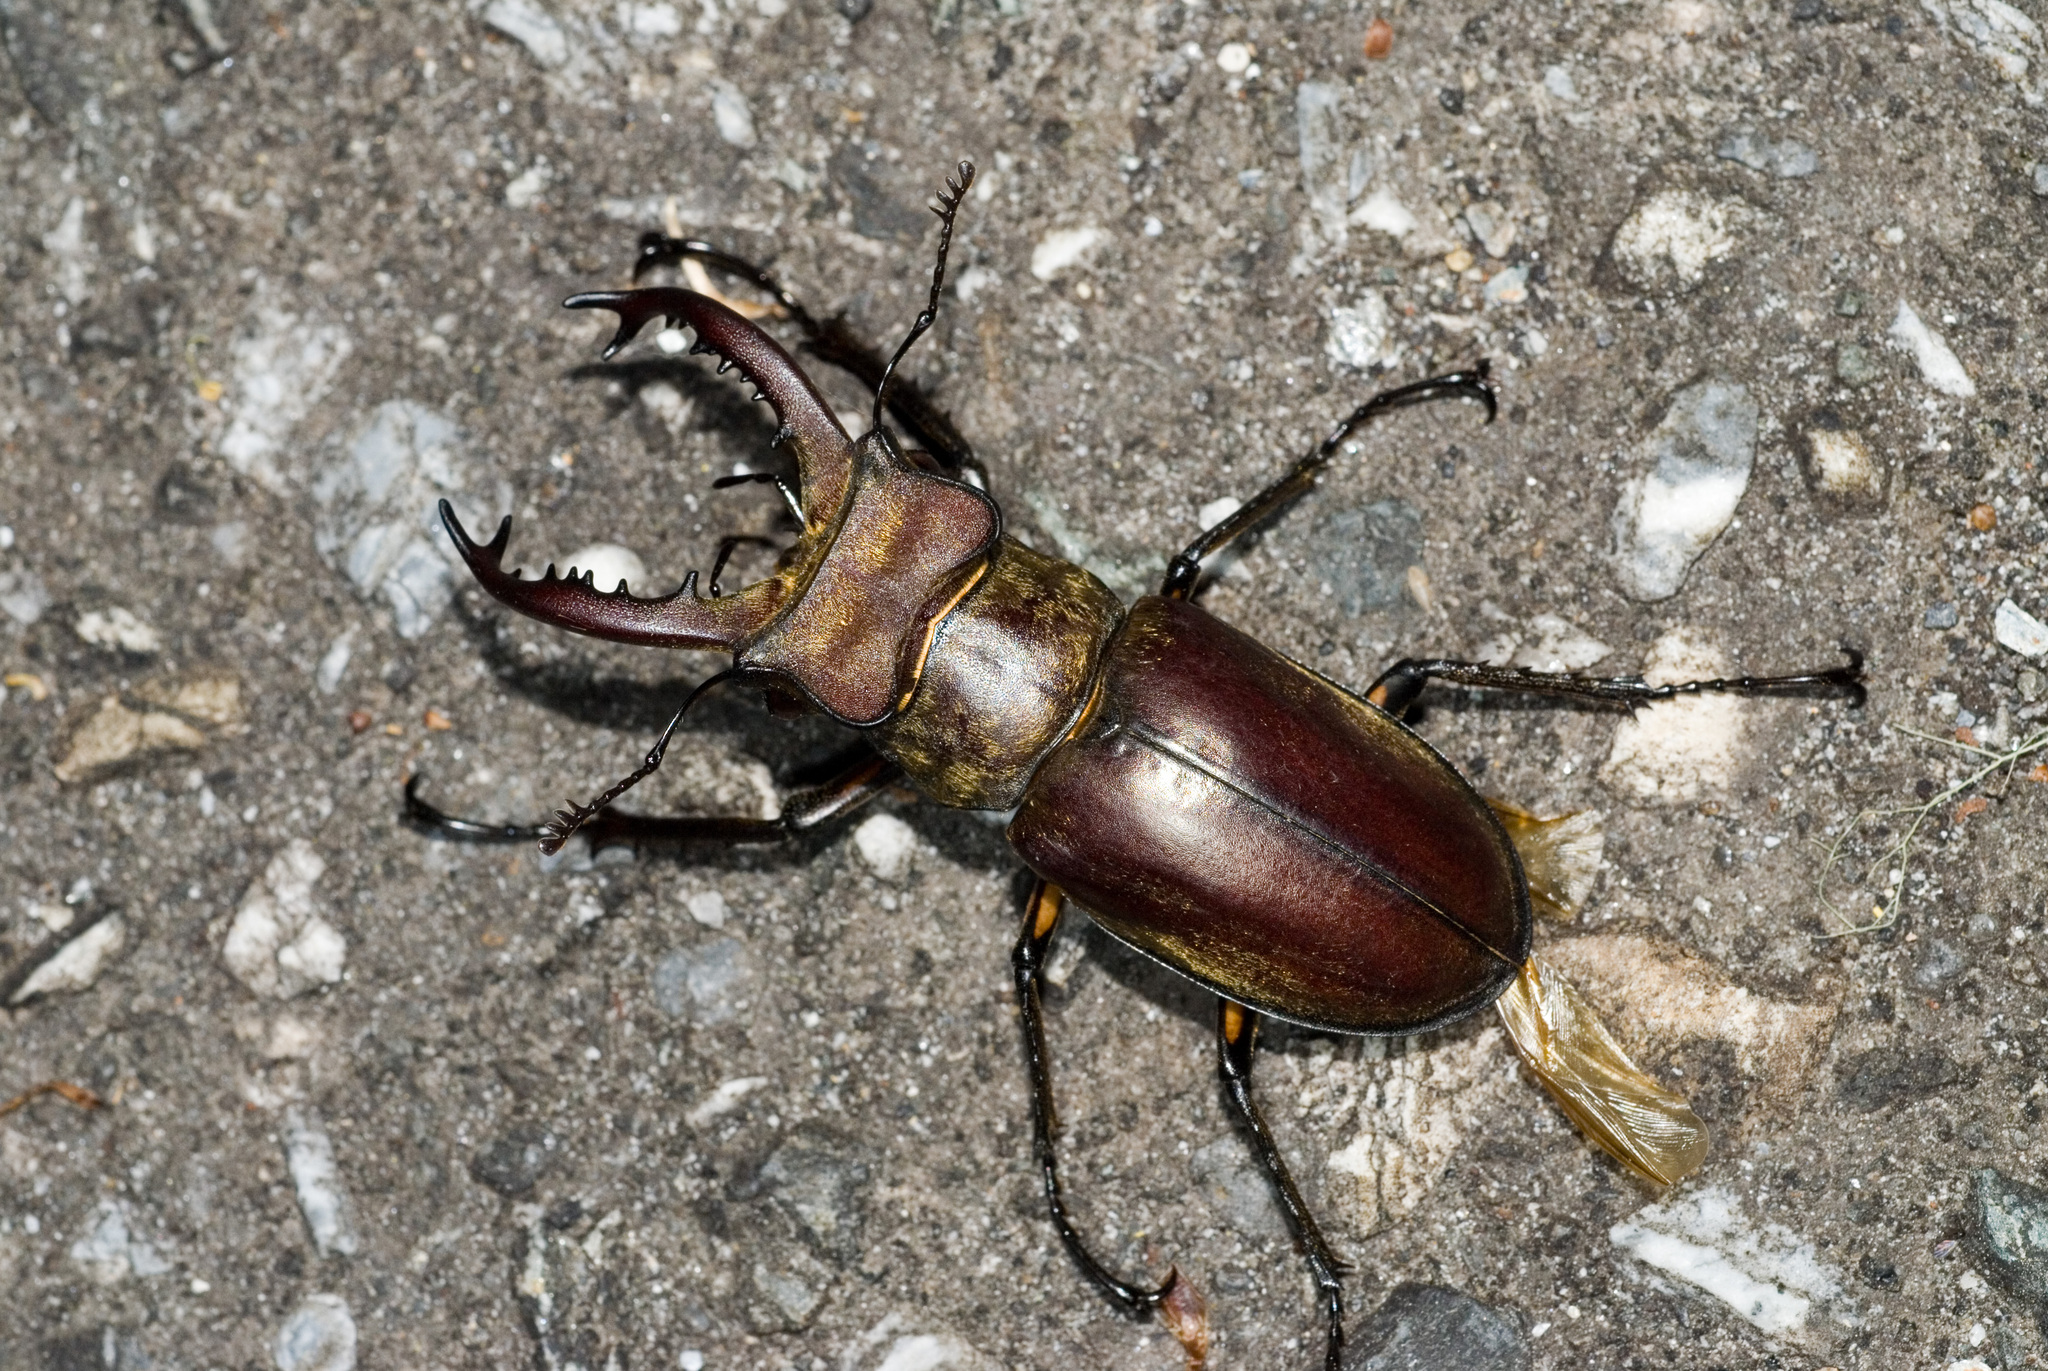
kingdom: Animalia
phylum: Arthropoda
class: Insecta
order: Coleoptera
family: Lucanidae
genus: Lucanus
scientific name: Lucanus maculifemoratus
